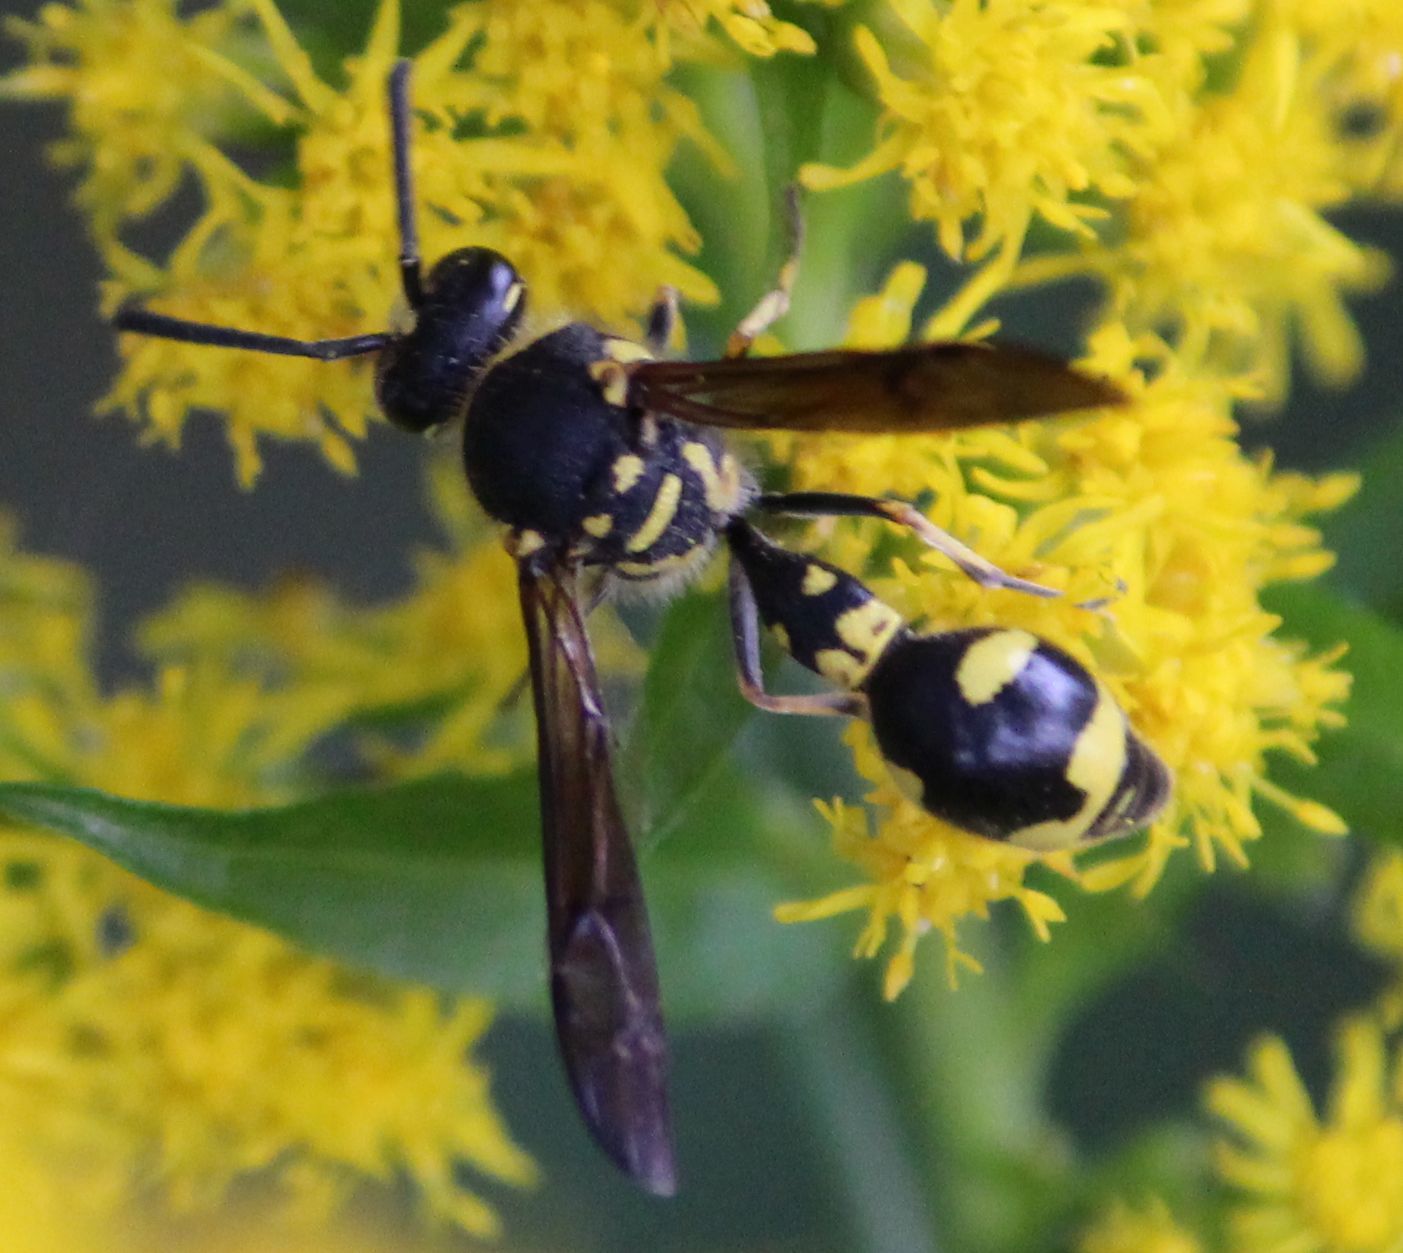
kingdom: Animalia
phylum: Arthropoda
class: Insecta
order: Hymenoptera
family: Vespidae
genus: Eumenes
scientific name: Eumenes
